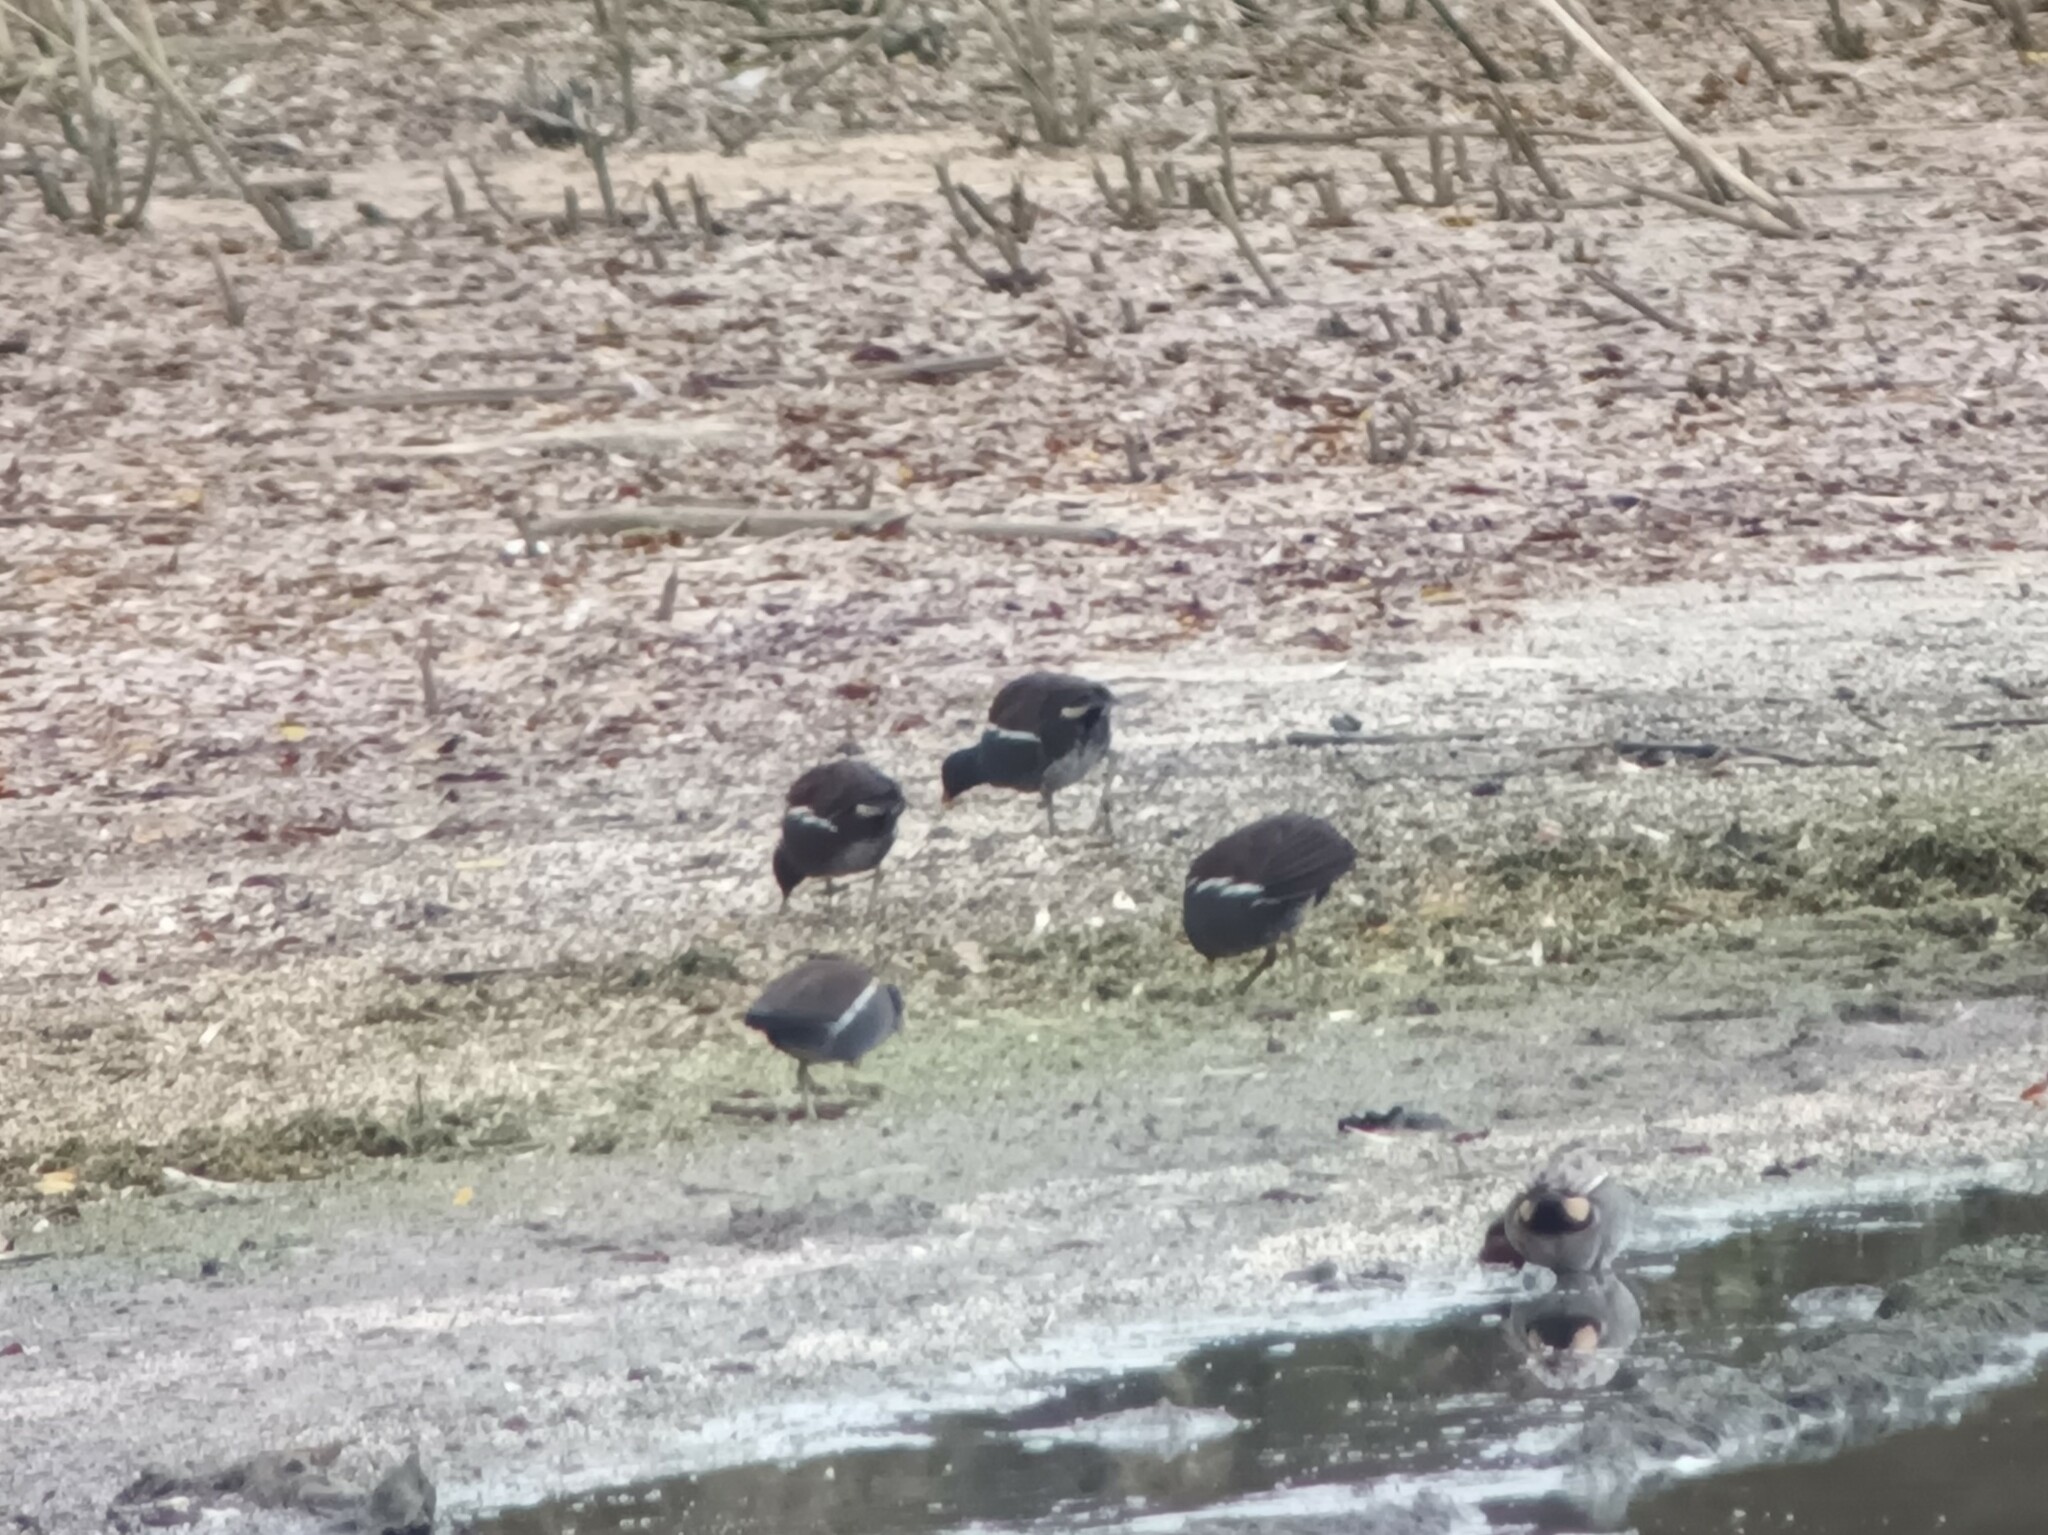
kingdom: Animalia
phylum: Chordata
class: Aves
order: Gruiformes
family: Rallidae
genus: Gallinula
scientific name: Gallinula chloropus
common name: Common moorhen
